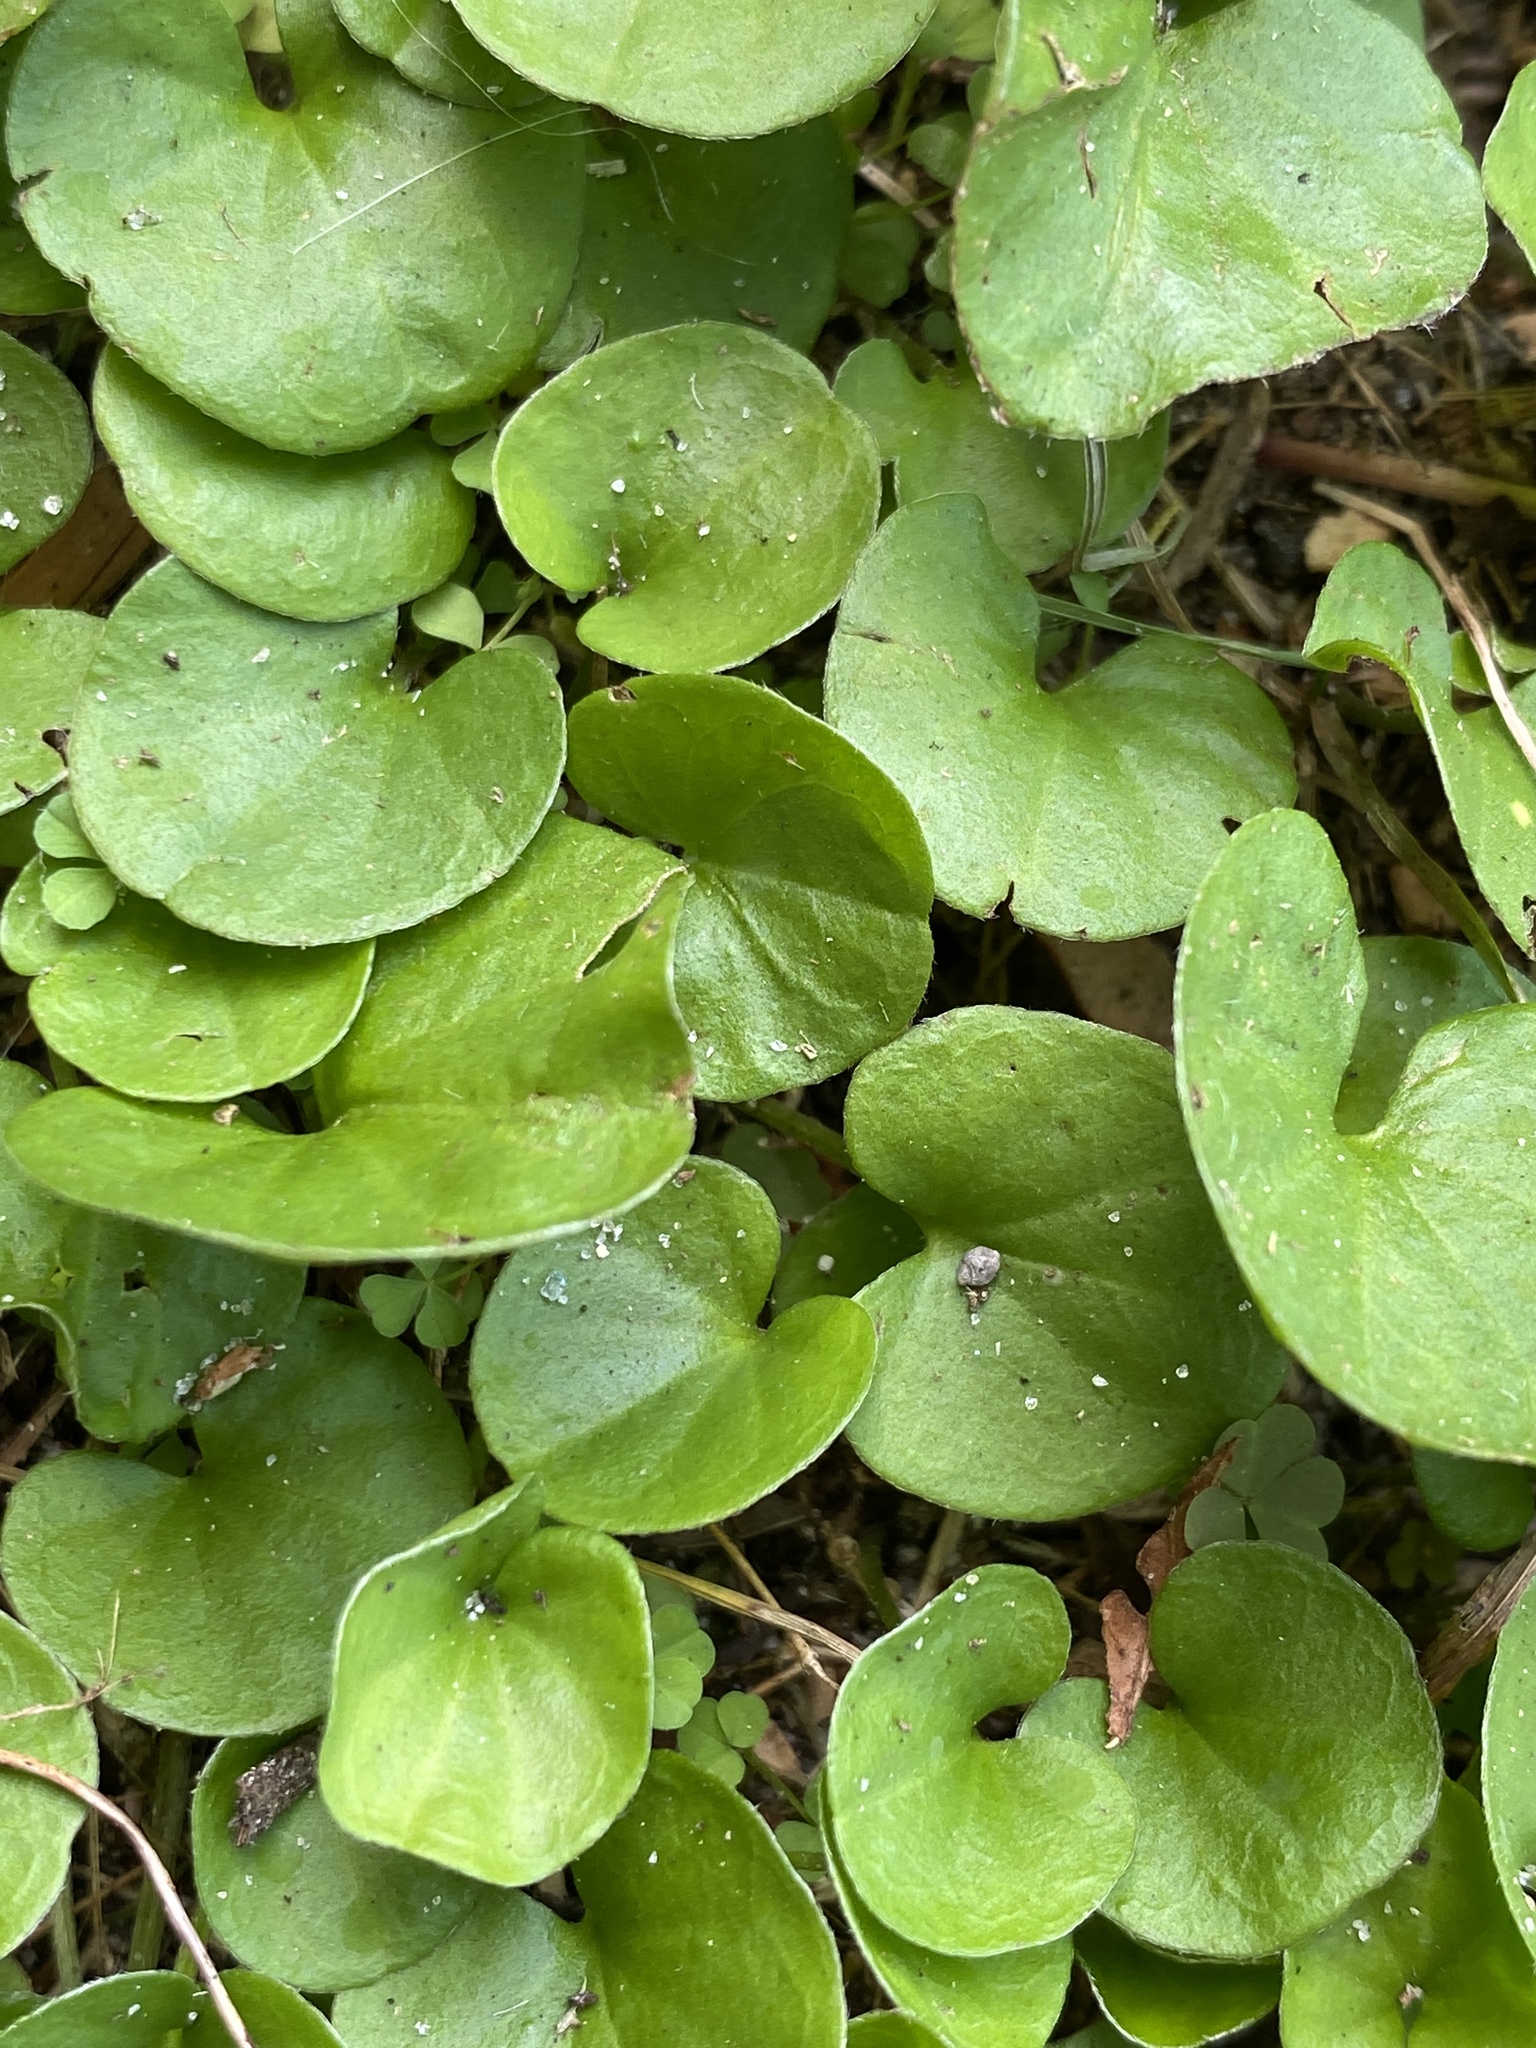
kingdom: Plantae
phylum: Tracheophyta
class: Magnoliopsida
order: Solanales
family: Convolvulaceae
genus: Dichondra
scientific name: Dichondra carolinensis
